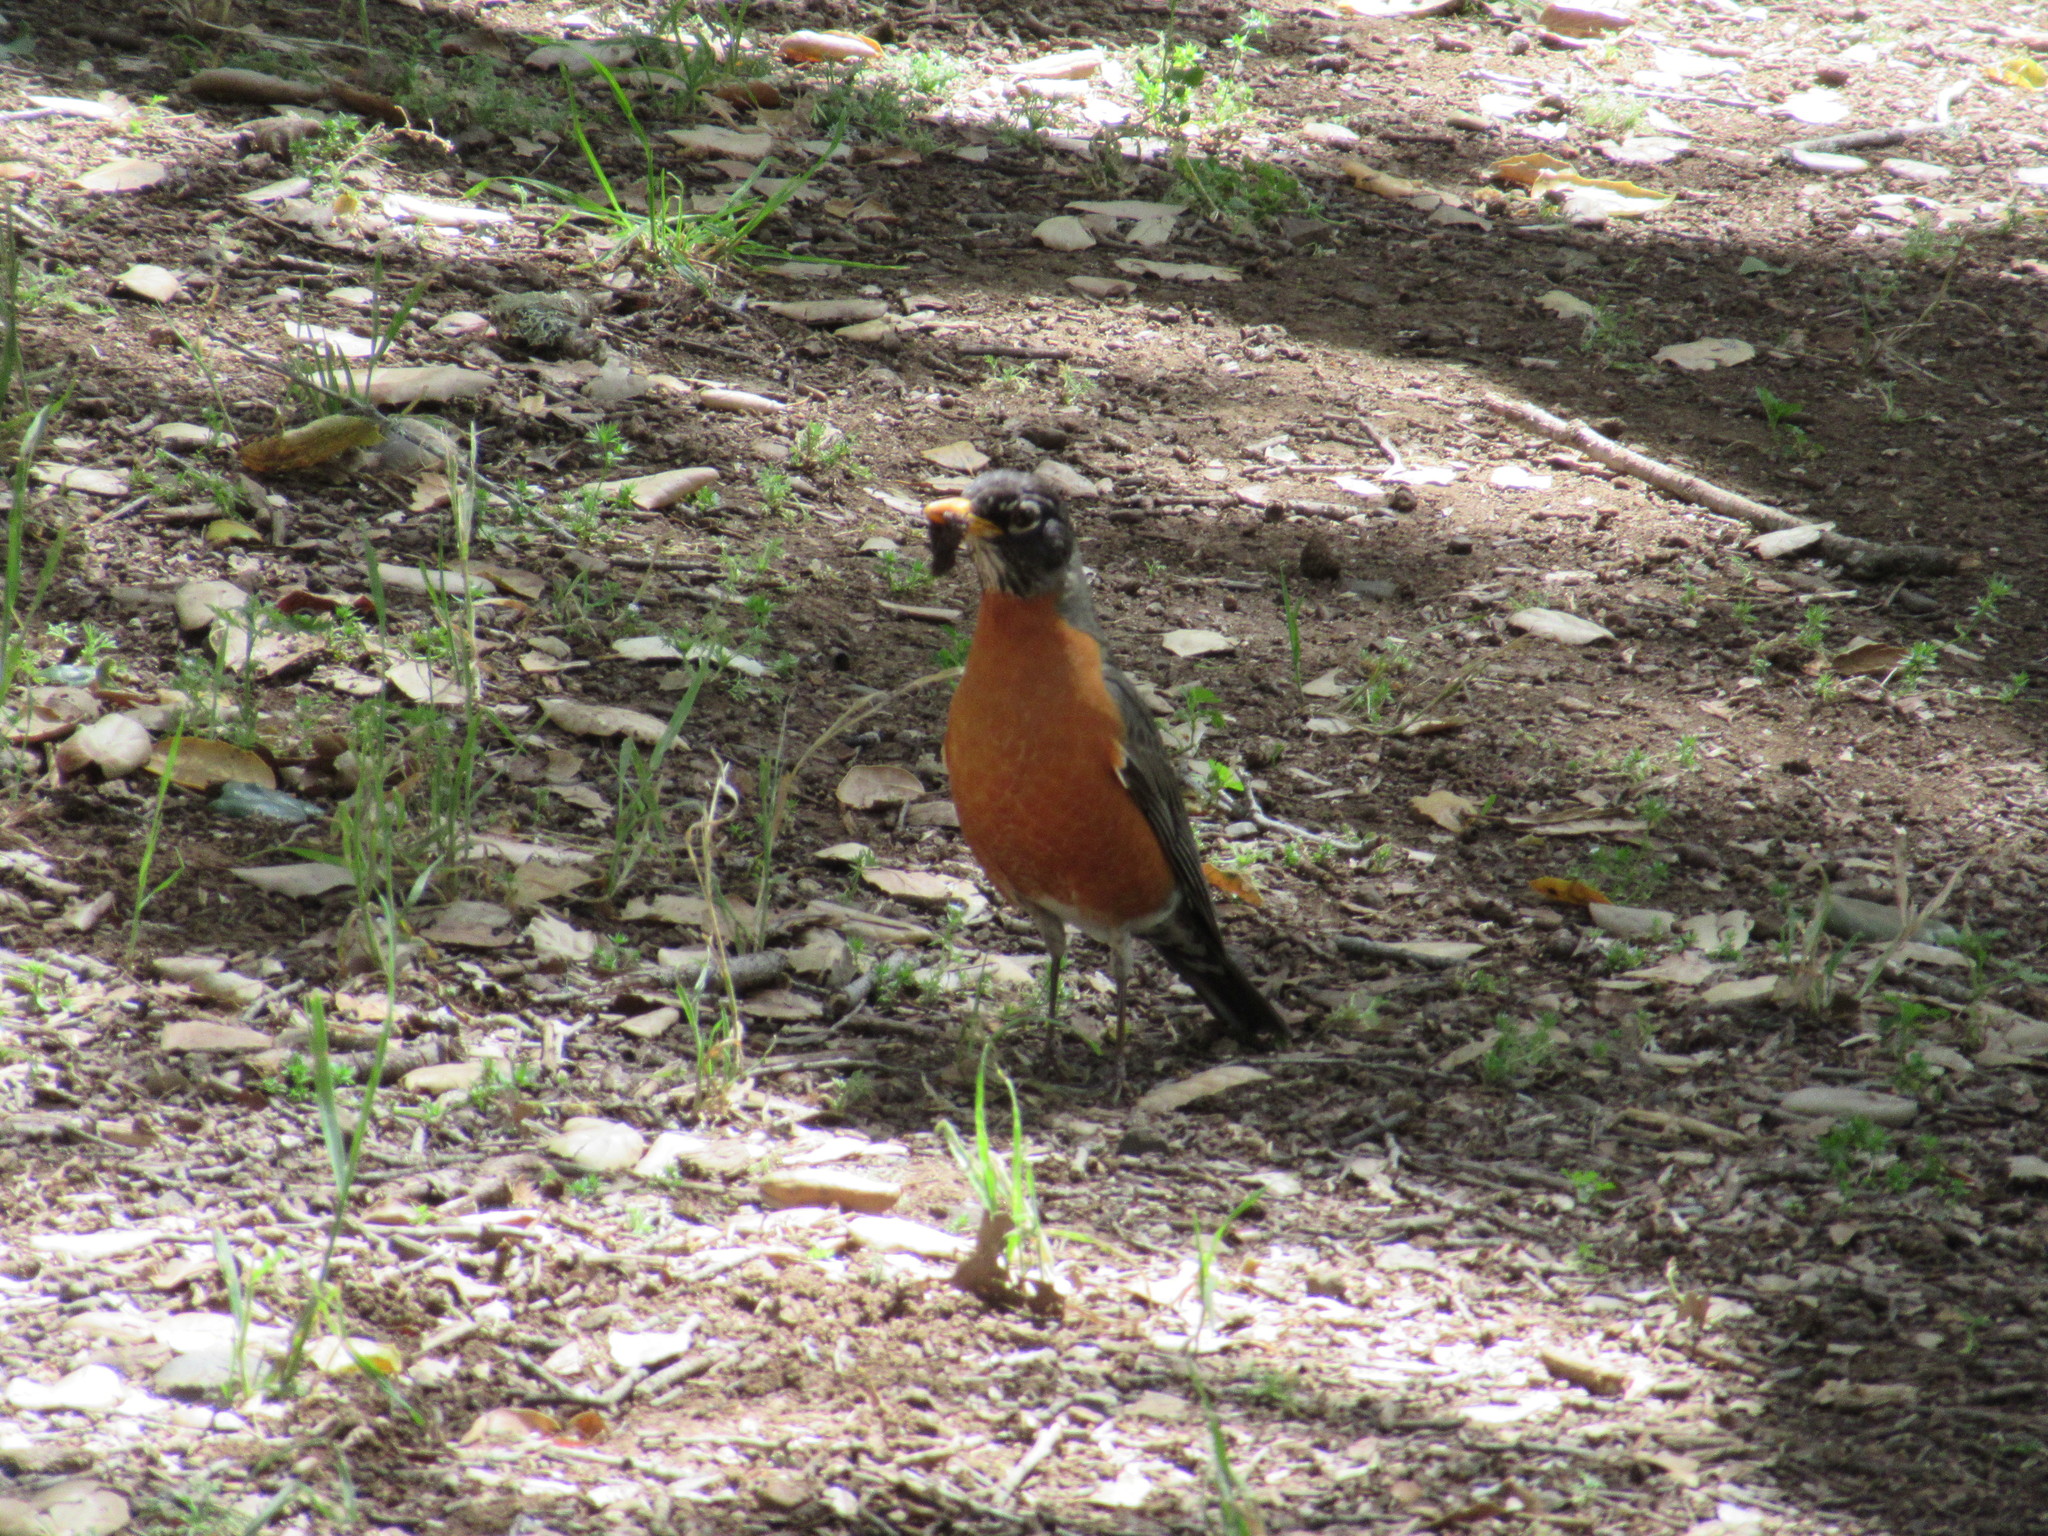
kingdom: Animalia
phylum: Chordata
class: Aves
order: Passeriformes
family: Turdidae
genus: Turdus
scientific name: Turdus migratorius
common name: American robin
